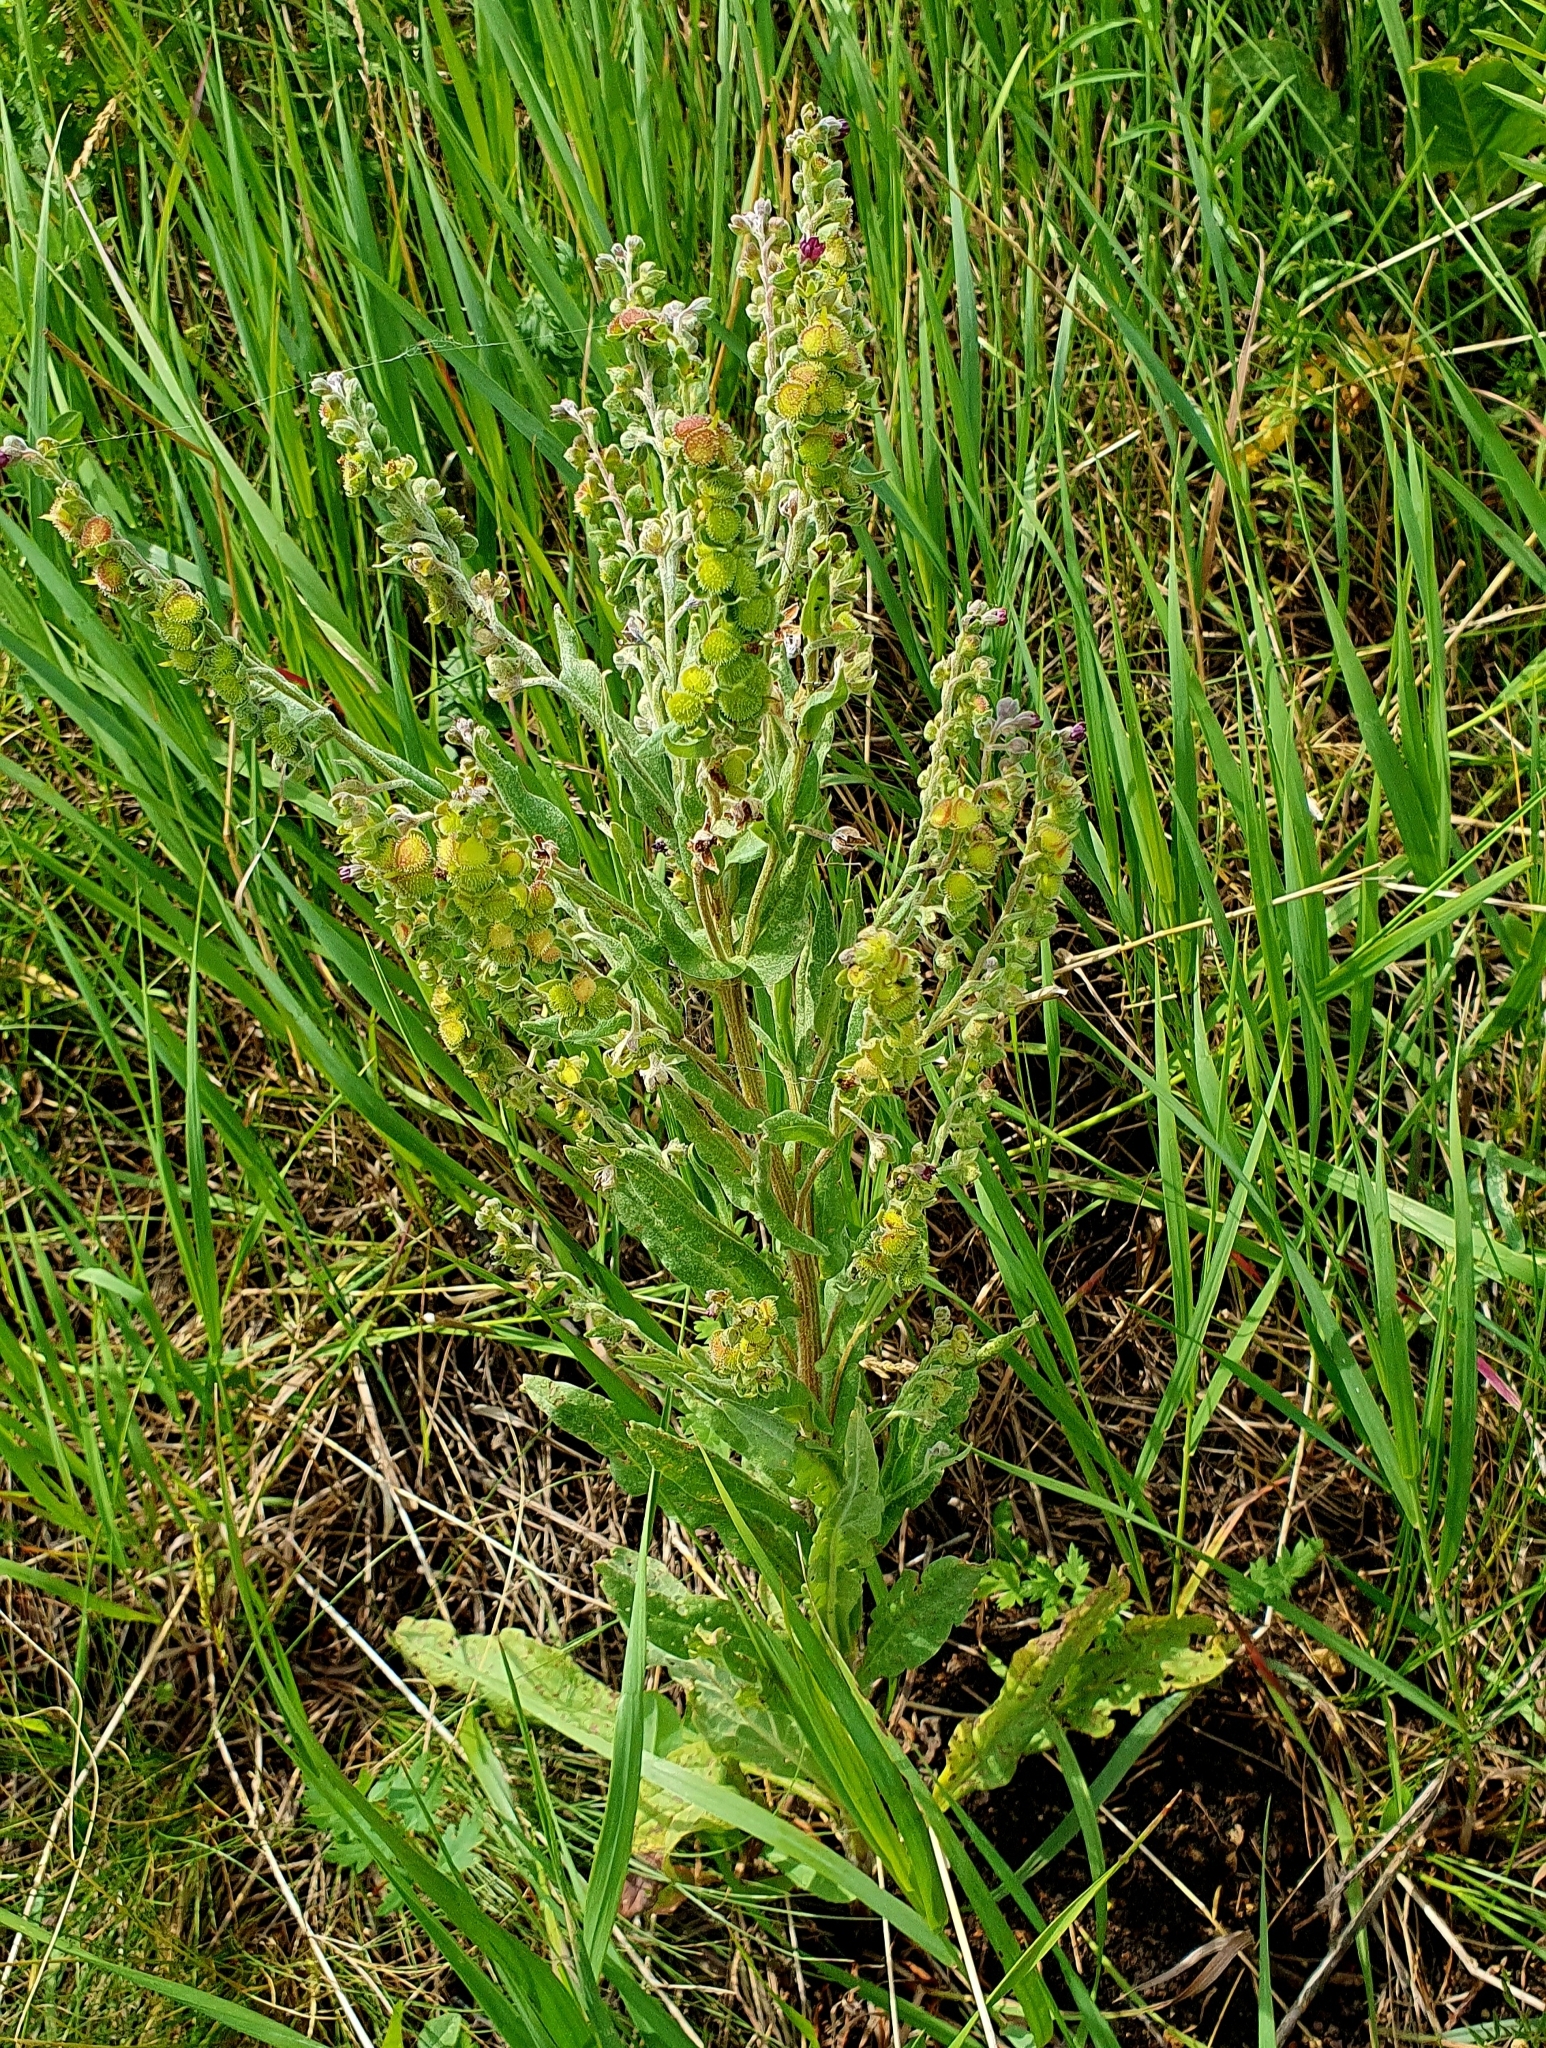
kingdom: Plantae
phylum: Tracheophyta
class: Magnoliopsida
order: Boraginales
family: Boraginaceae
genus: Cynoglossum
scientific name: Cynoglossum officinale
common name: Hound's-tongue
